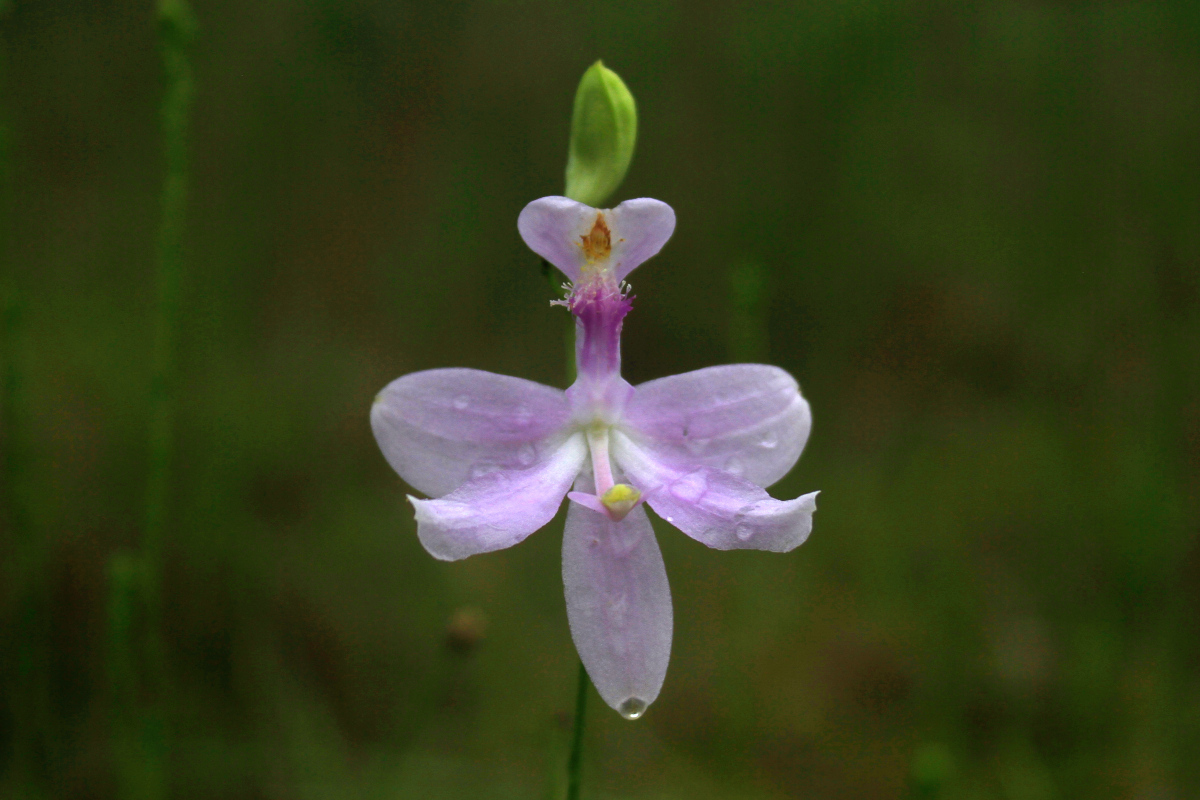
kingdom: Plantae
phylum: Tracheophyta
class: Liliopsida
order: Asparagales
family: Orchidaceae
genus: Calopogon
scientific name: Calopogon pallidus
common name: Pale grasspink
